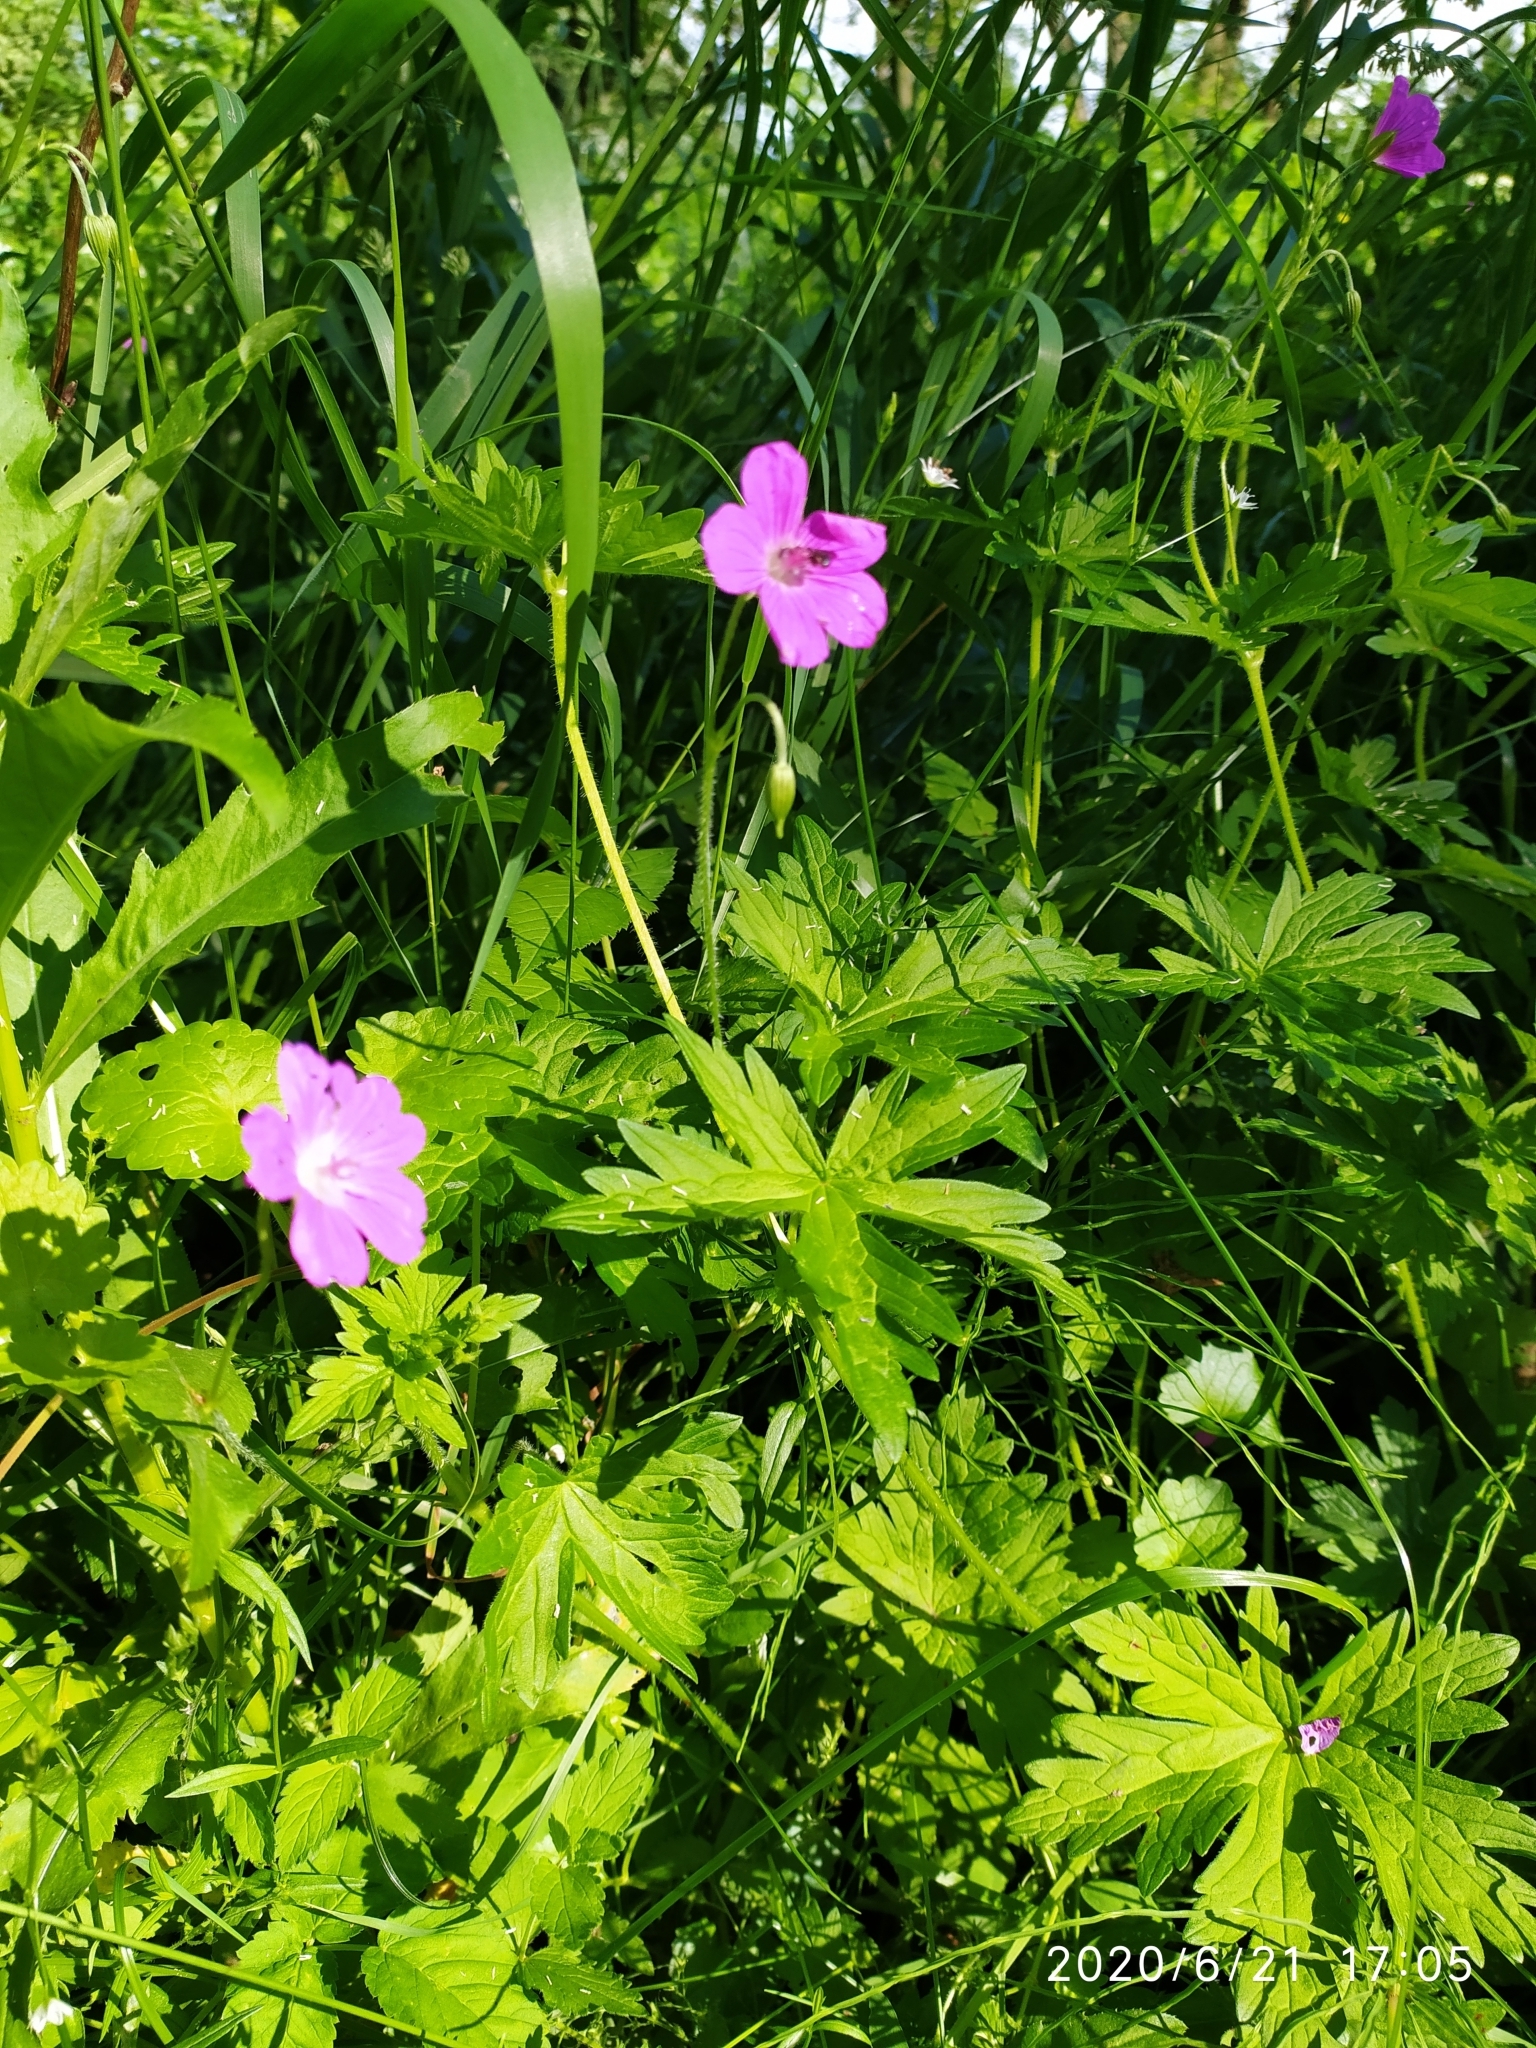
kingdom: Plantae
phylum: Tracheophyta
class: Magnoliopsida
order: Geraniales
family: Geraniaceae
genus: Geranium
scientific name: Geranium palustre
